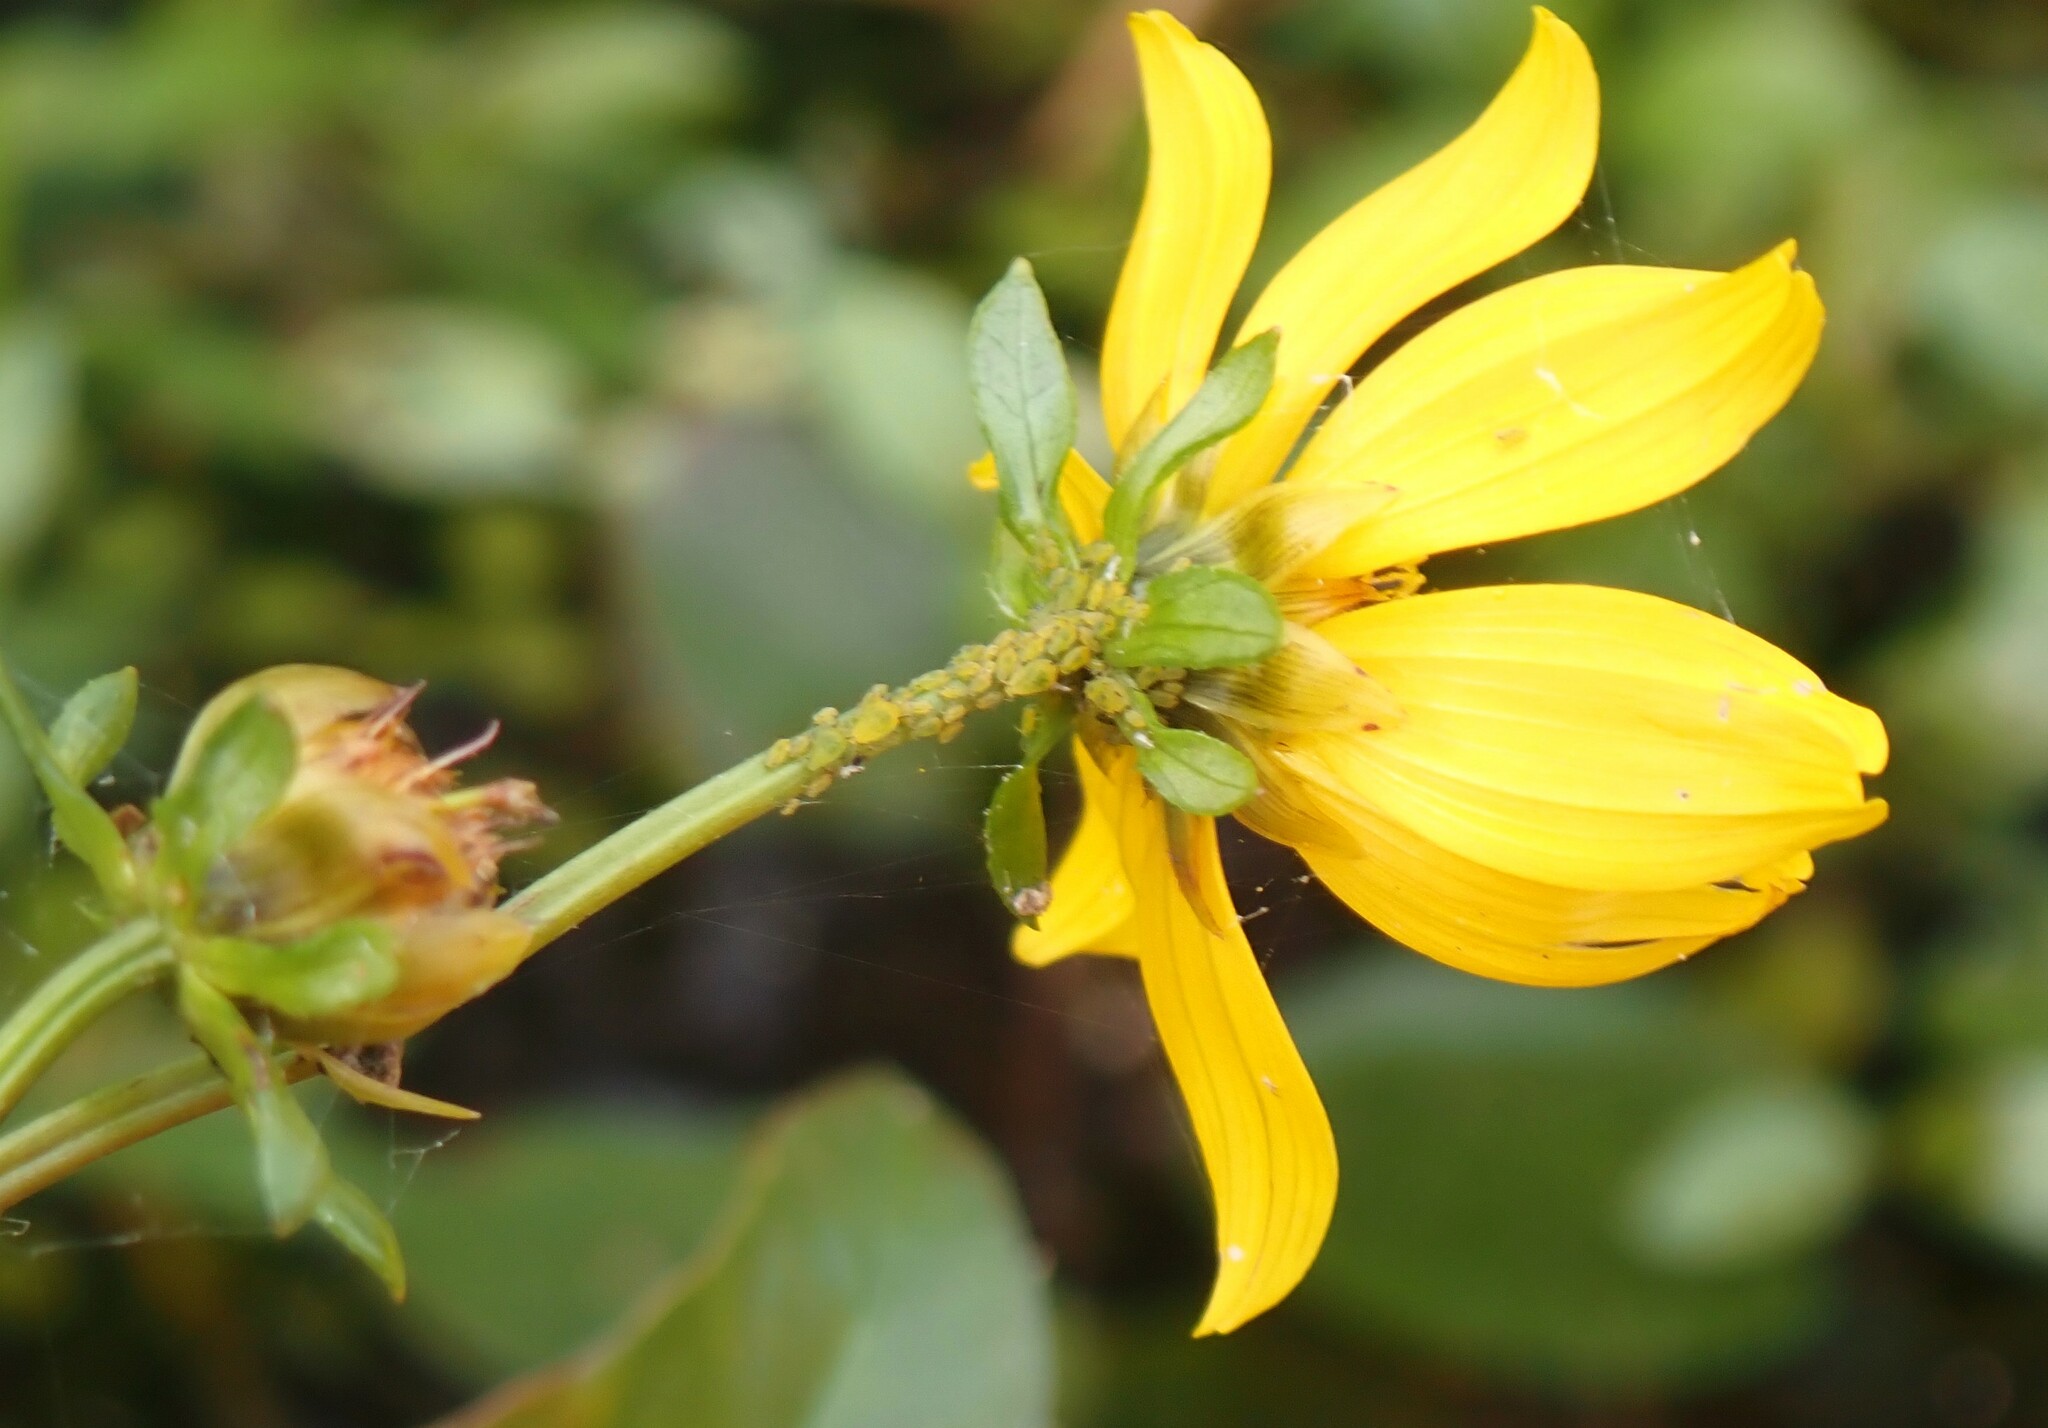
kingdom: Plantae
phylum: Tracheophyta
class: Magnoliopsida
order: Asterales
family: Asteraceae
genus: Bidens
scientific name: Bidens laevis
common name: Larger bur-marigold
